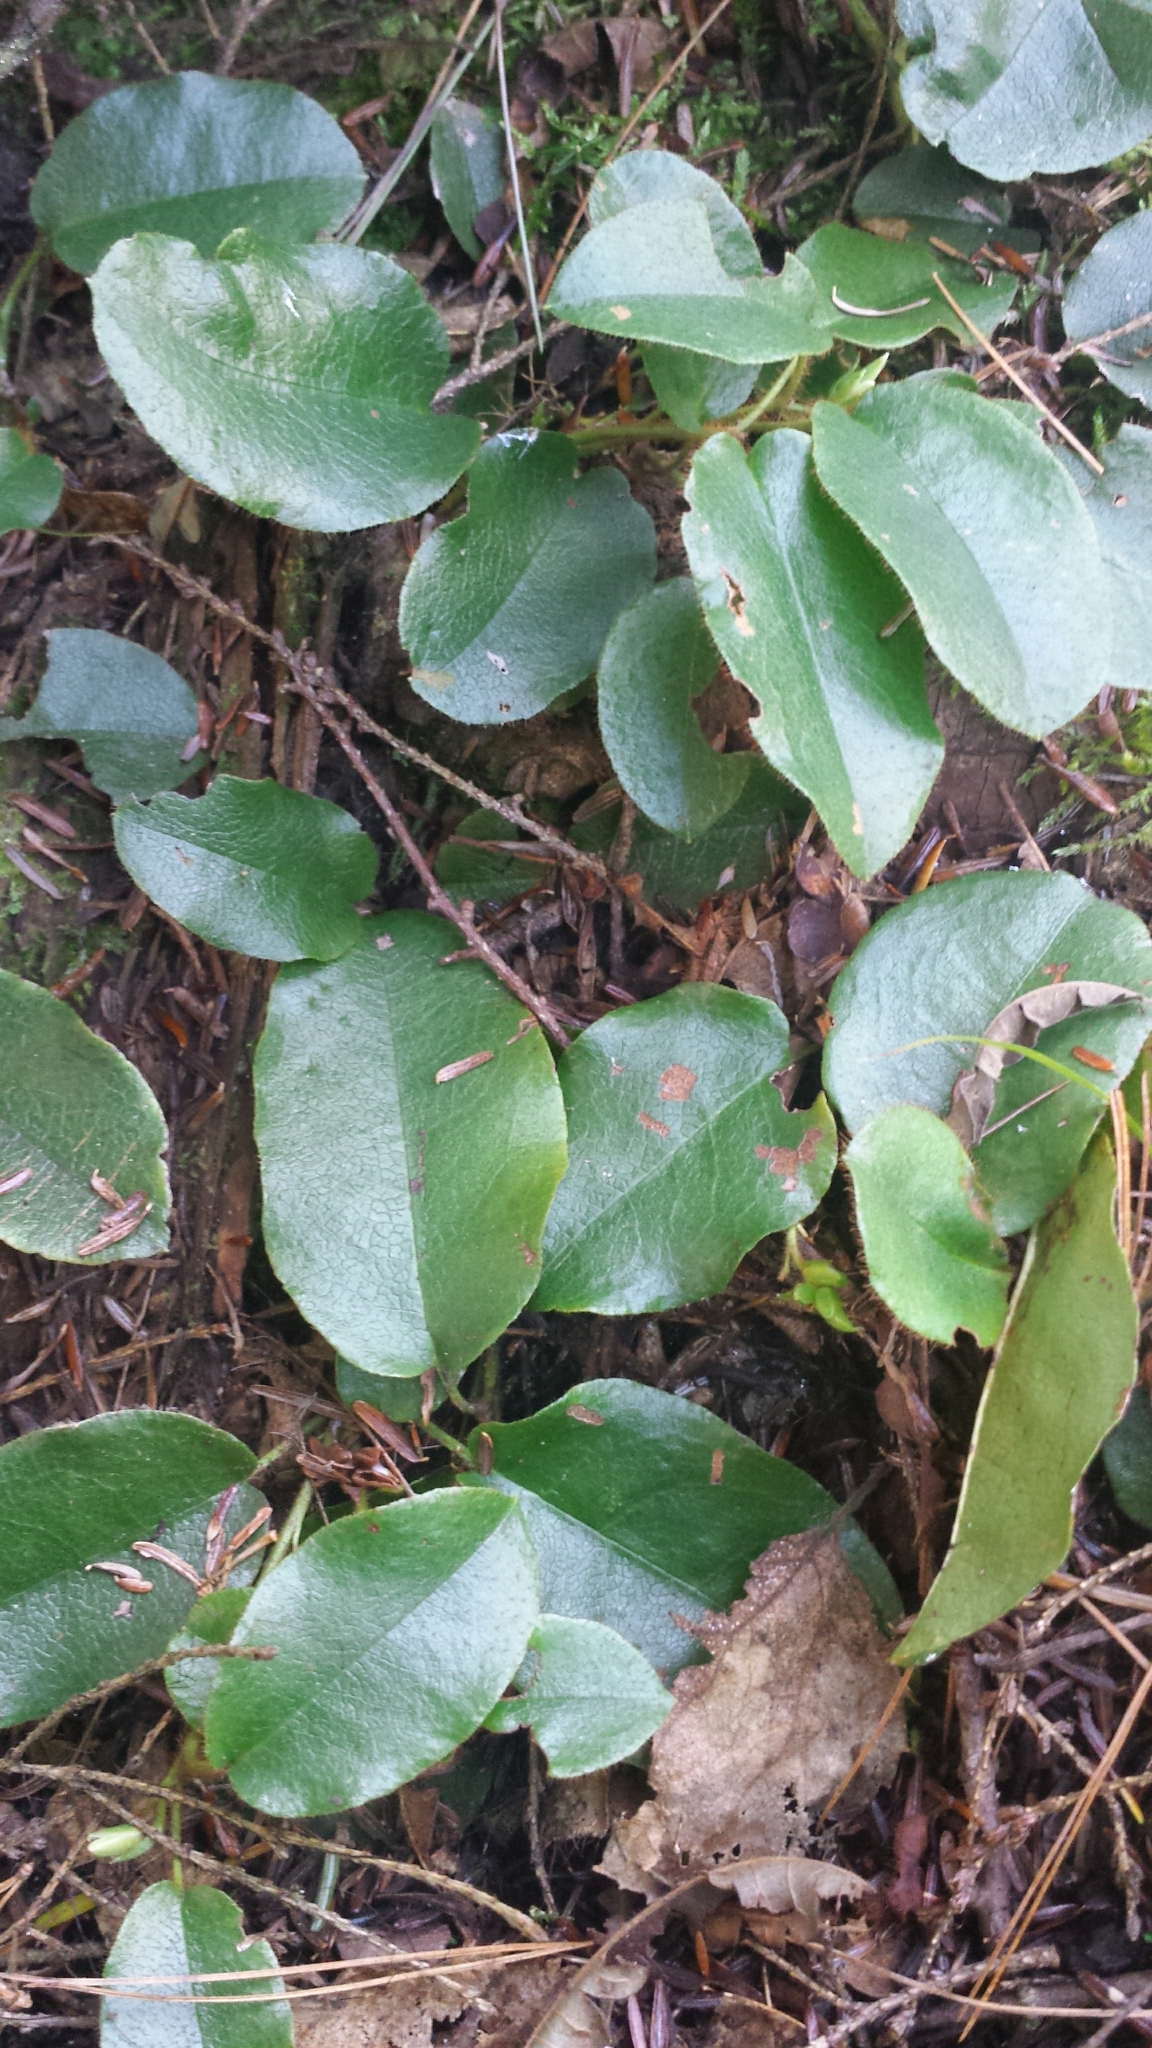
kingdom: Plantae
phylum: Tracheophyta
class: Magnoliopsida
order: Ericales
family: Ericaceae
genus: Epigaea
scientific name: Epigaea repens
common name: Gravelroot
